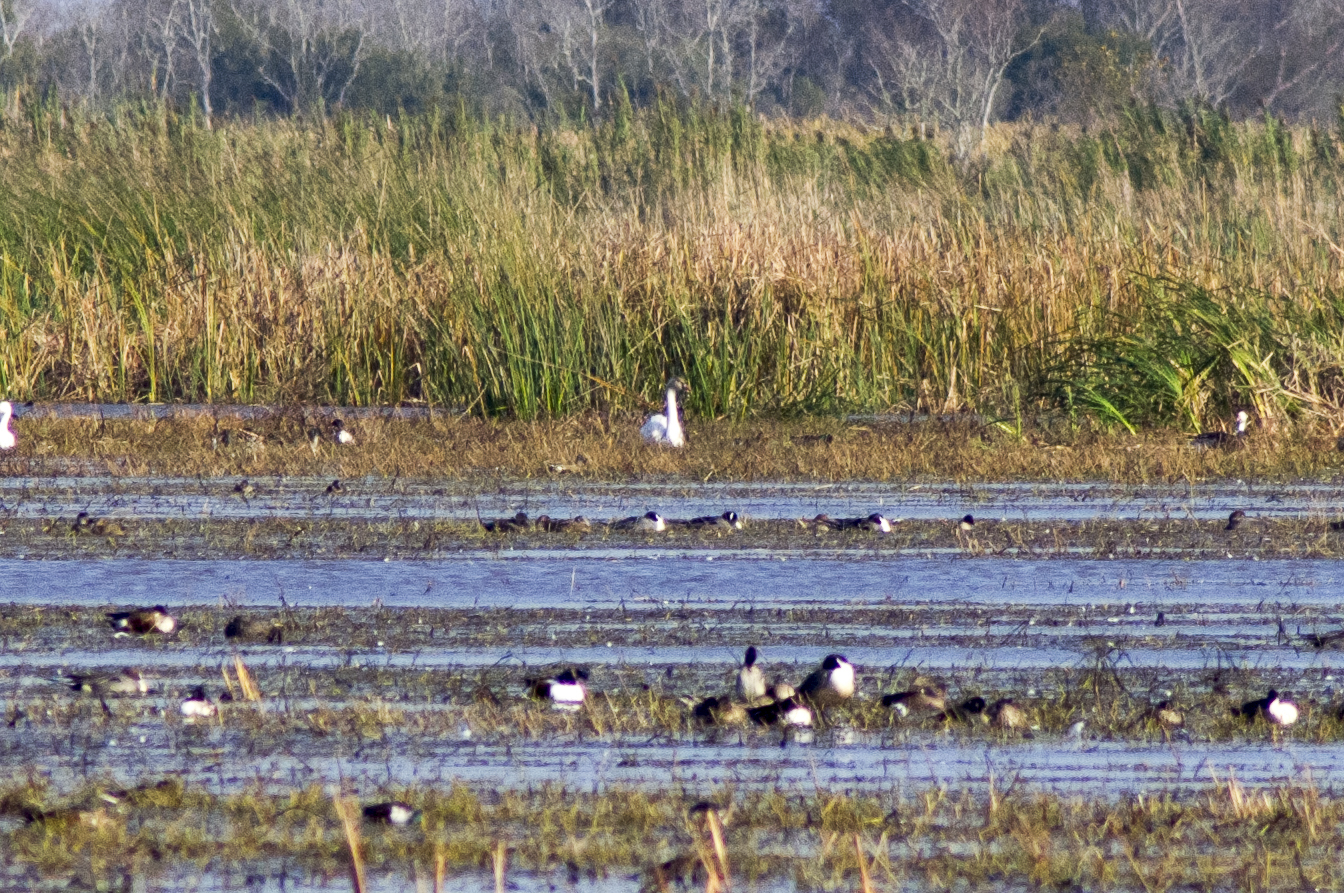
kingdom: Animalia
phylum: Chordata
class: Aves
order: Anseriformes
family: Anatidae
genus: Cygnus
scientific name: Cygnus columbianus
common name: Tundra swan
